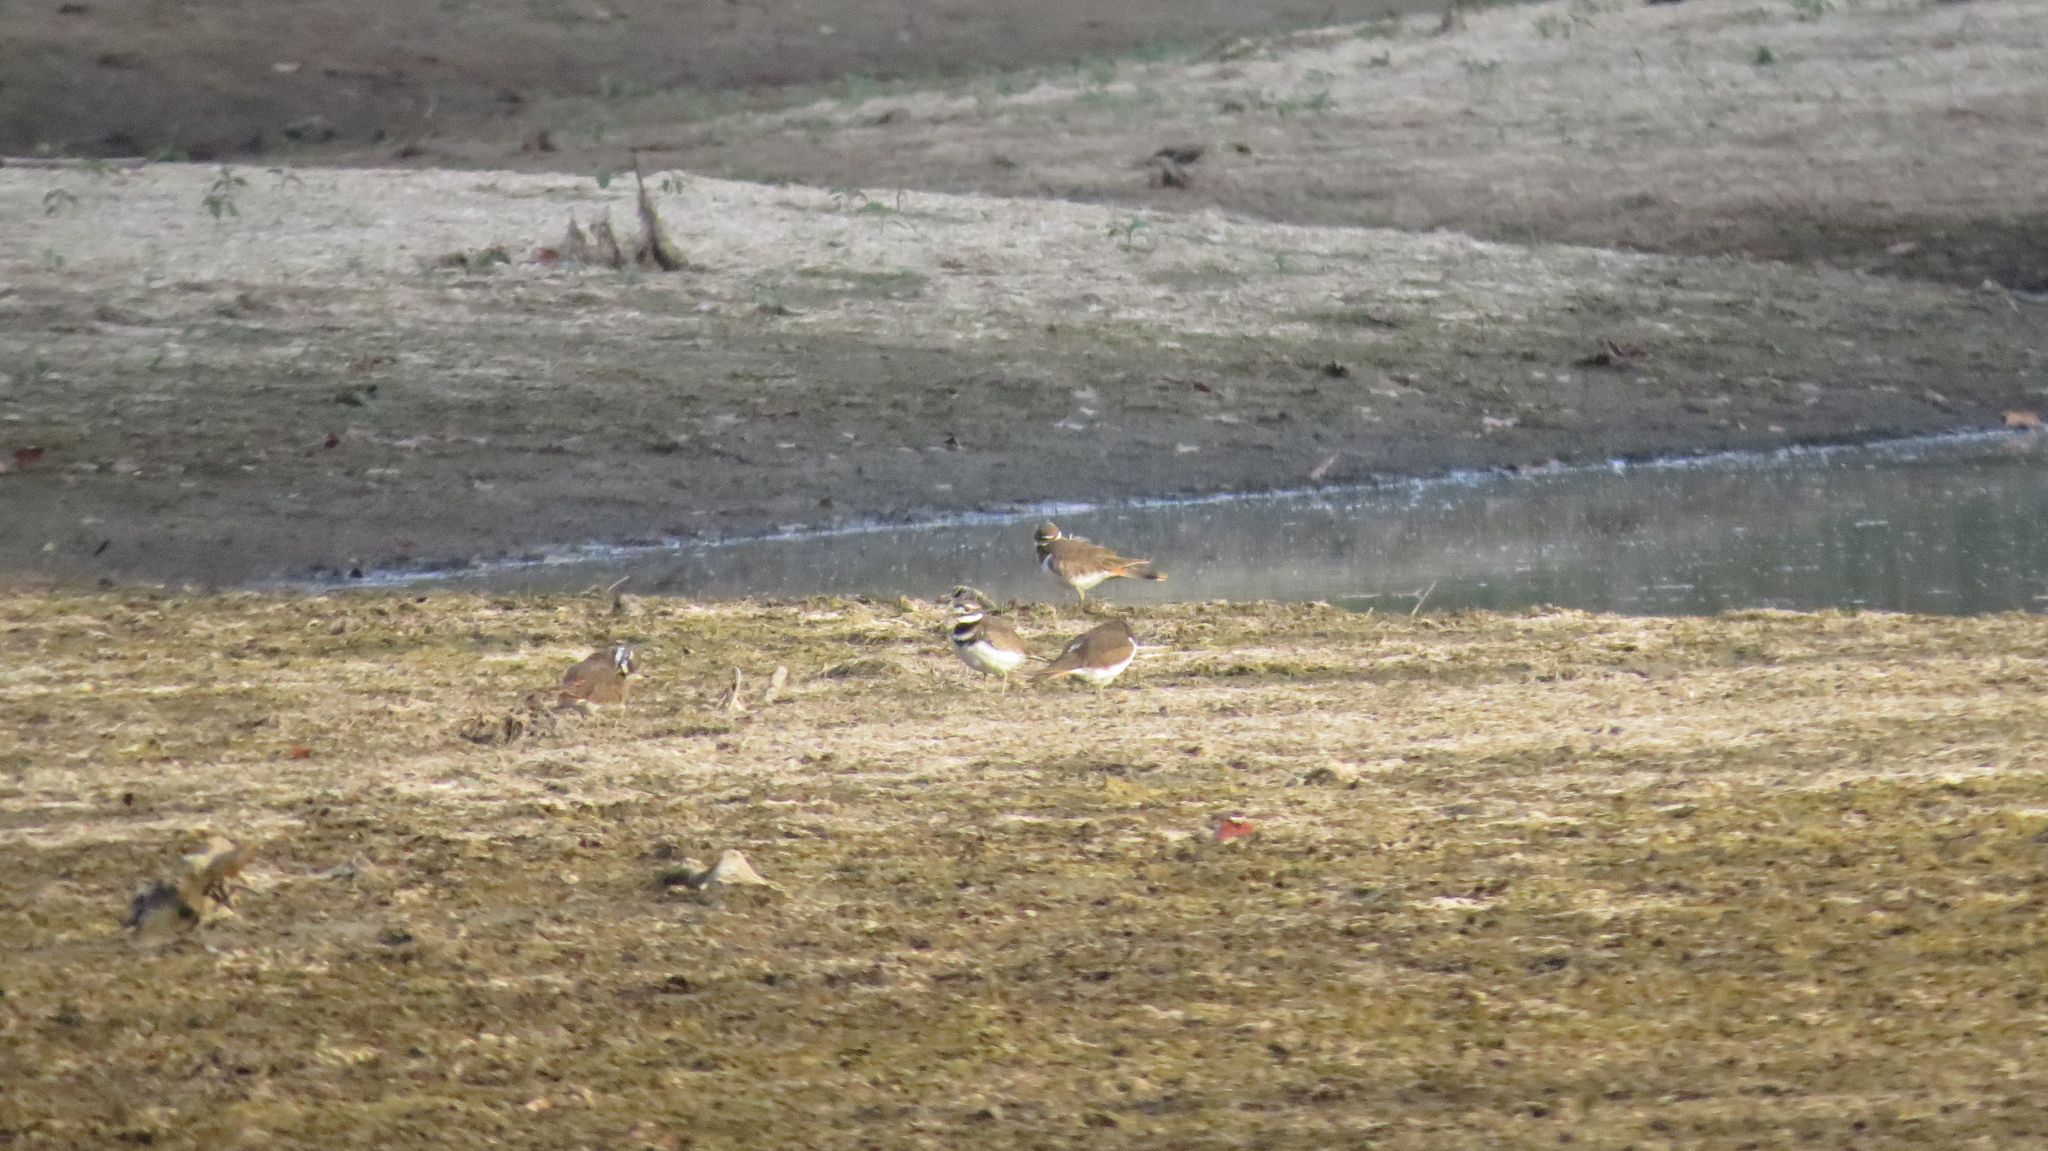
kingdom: Animalia
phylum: Chordata
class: Aves
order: Charadriiformes
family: Charadriidae
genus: Charadrius
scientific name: Charadrius vociferus
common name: Killdeer
